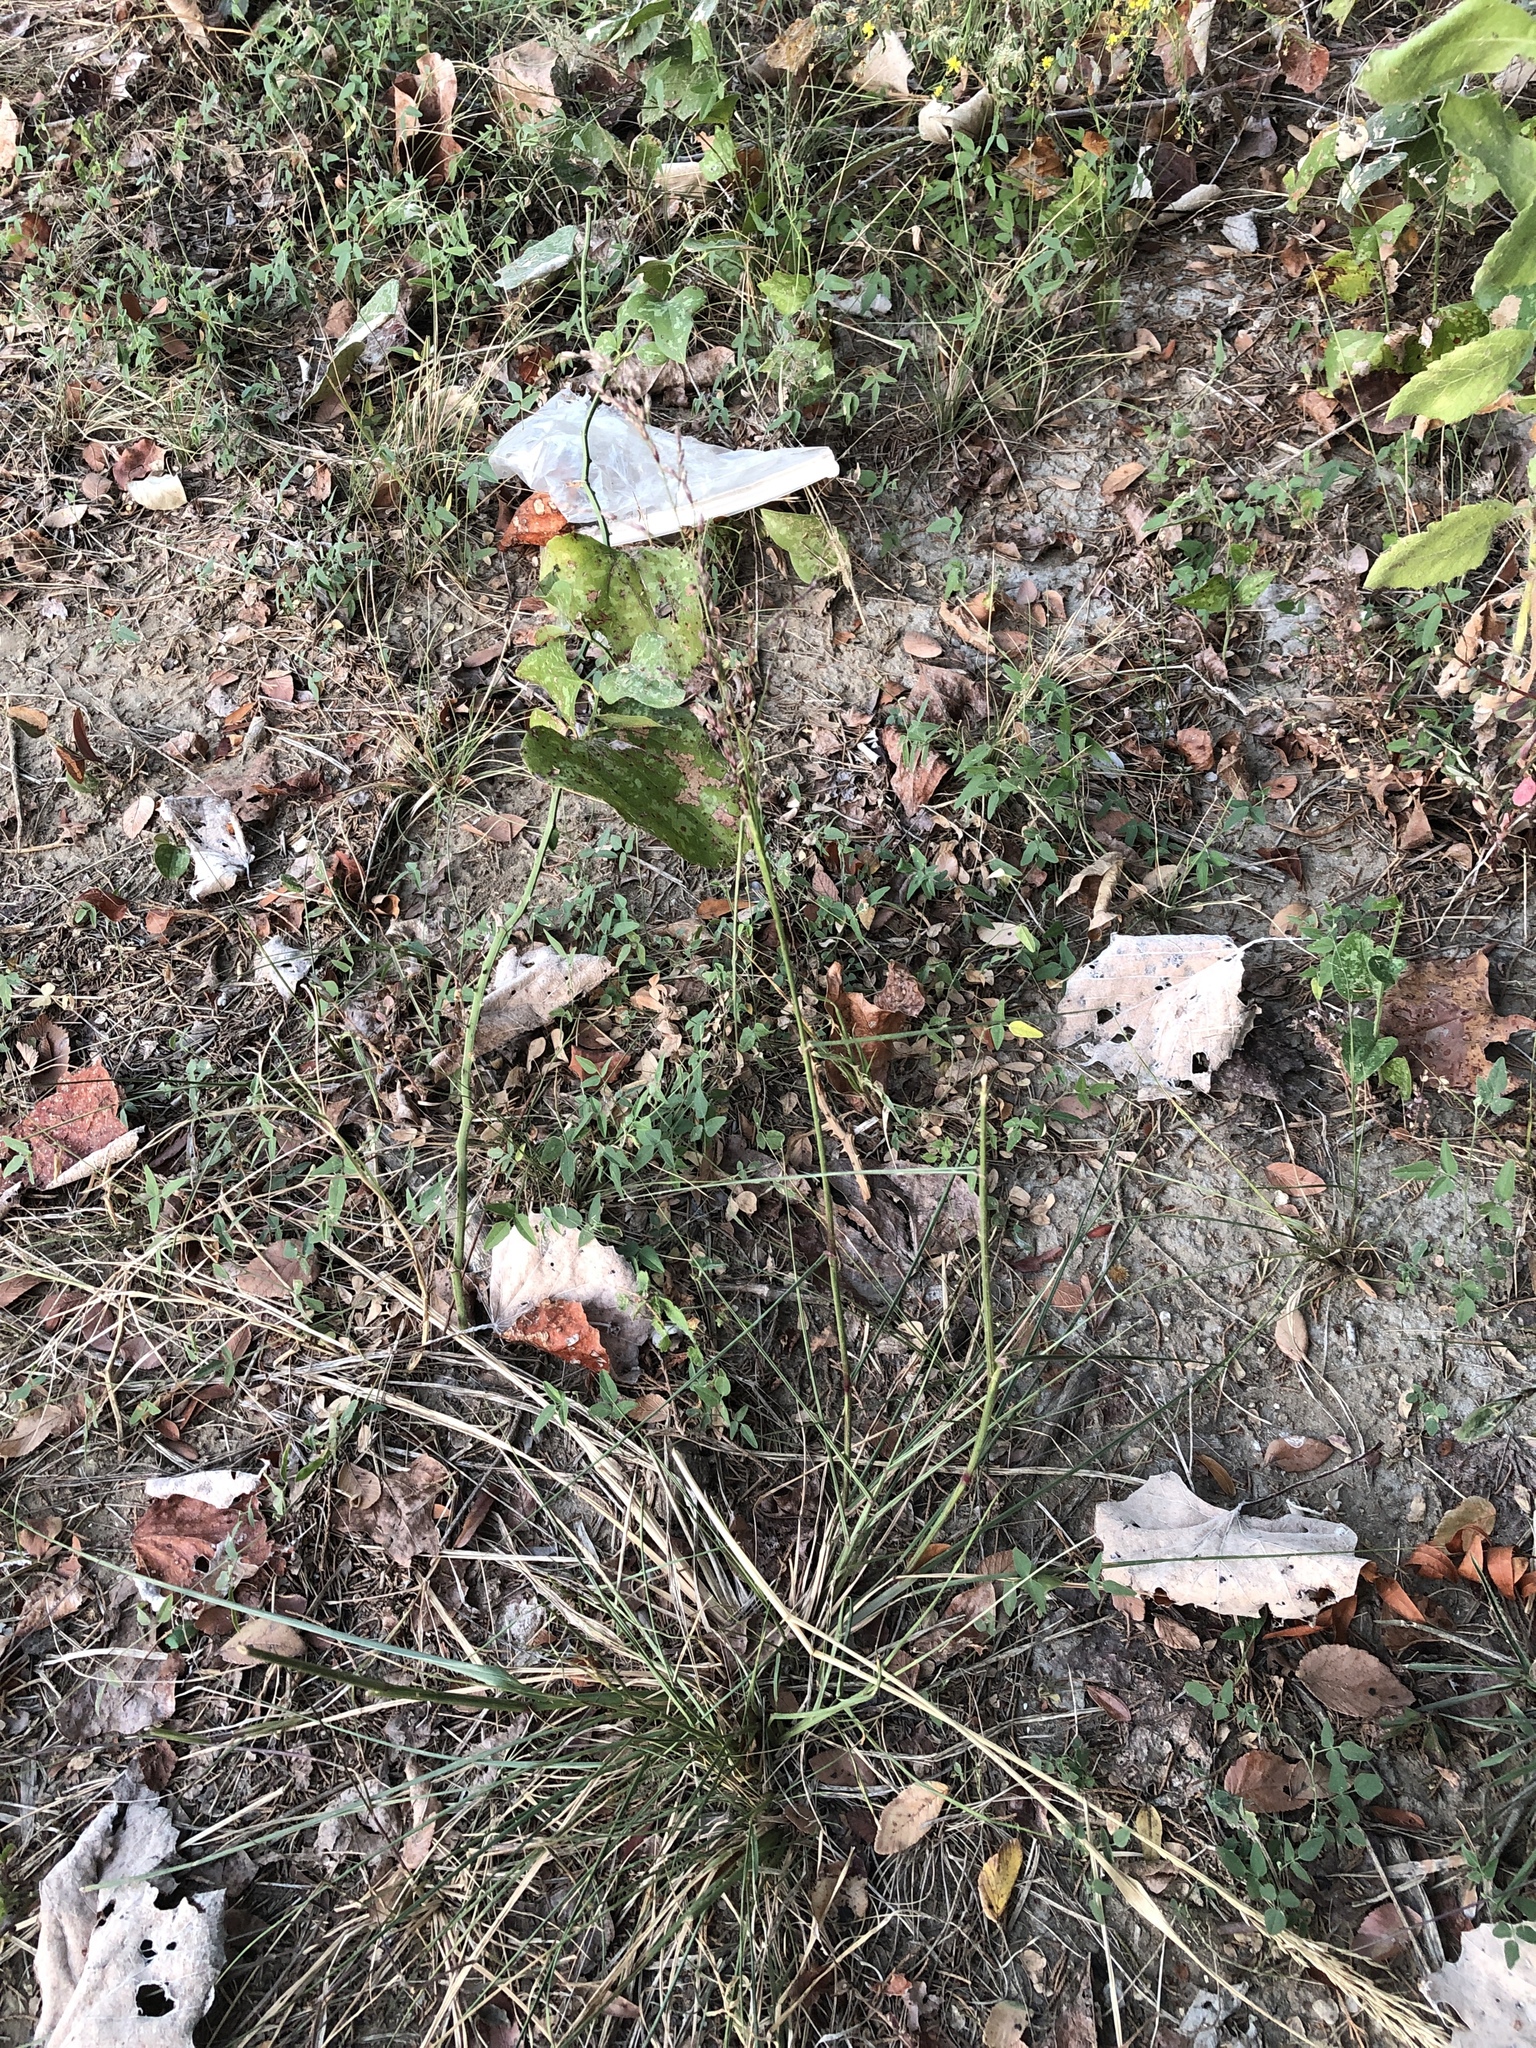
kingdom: Plantae
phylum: Tracheophyta
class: Liliopsida
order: Poales
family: Poaceae
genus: Tridens
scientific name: Tridens flavus
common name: Purpletop
